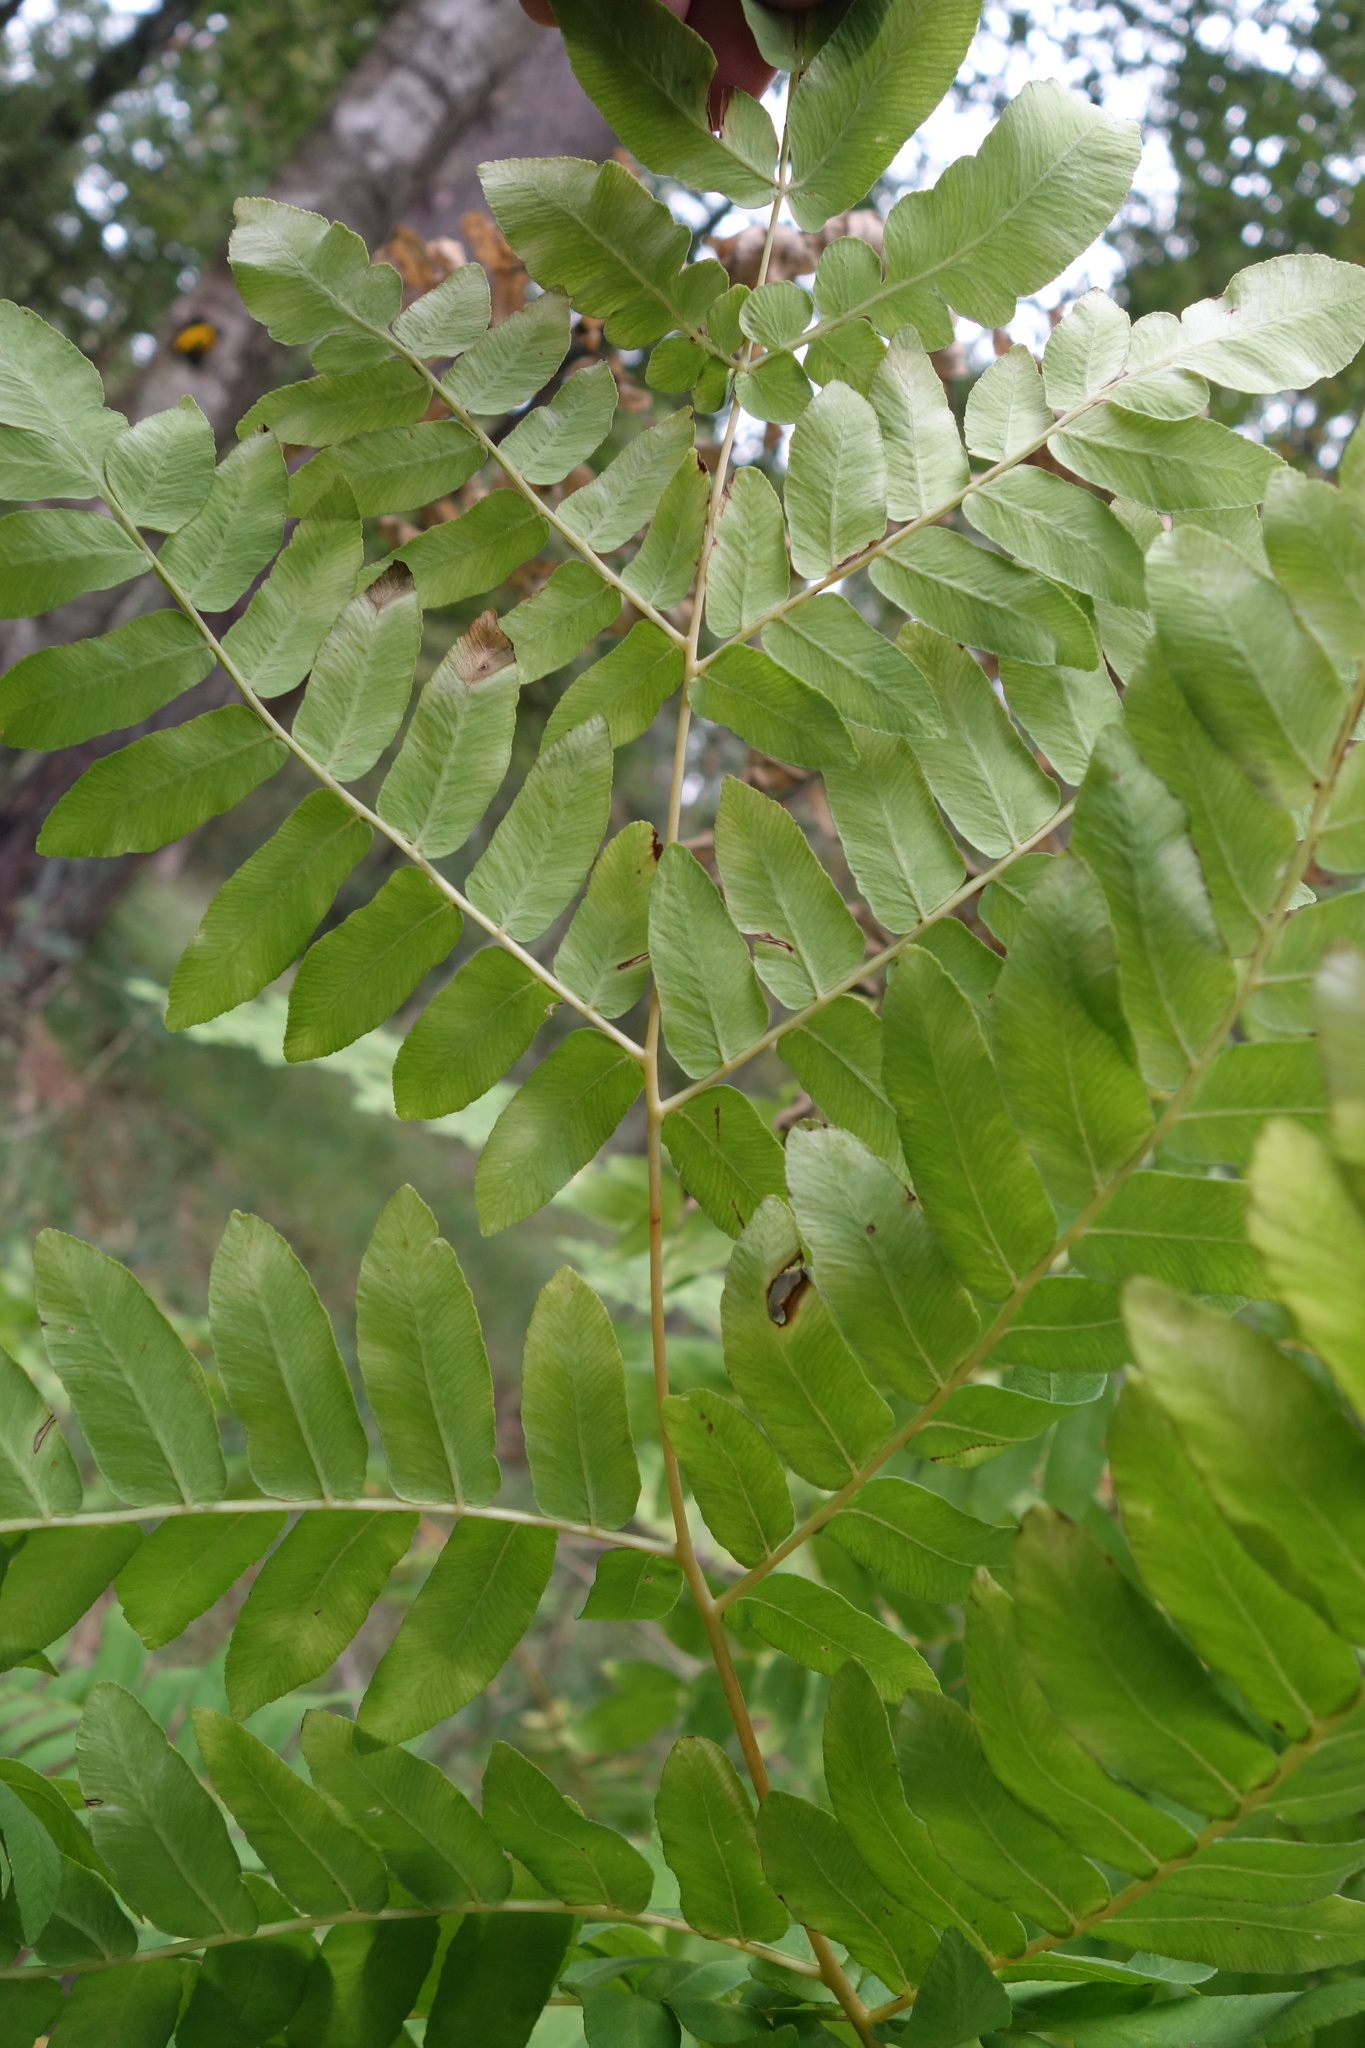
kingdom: Plantae
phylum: Tracheophyta
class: Polypodiopsida
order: Osmundales
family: Osmundaceae
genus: Osmunda
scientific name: Osmunda regalis
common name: Royal fern
